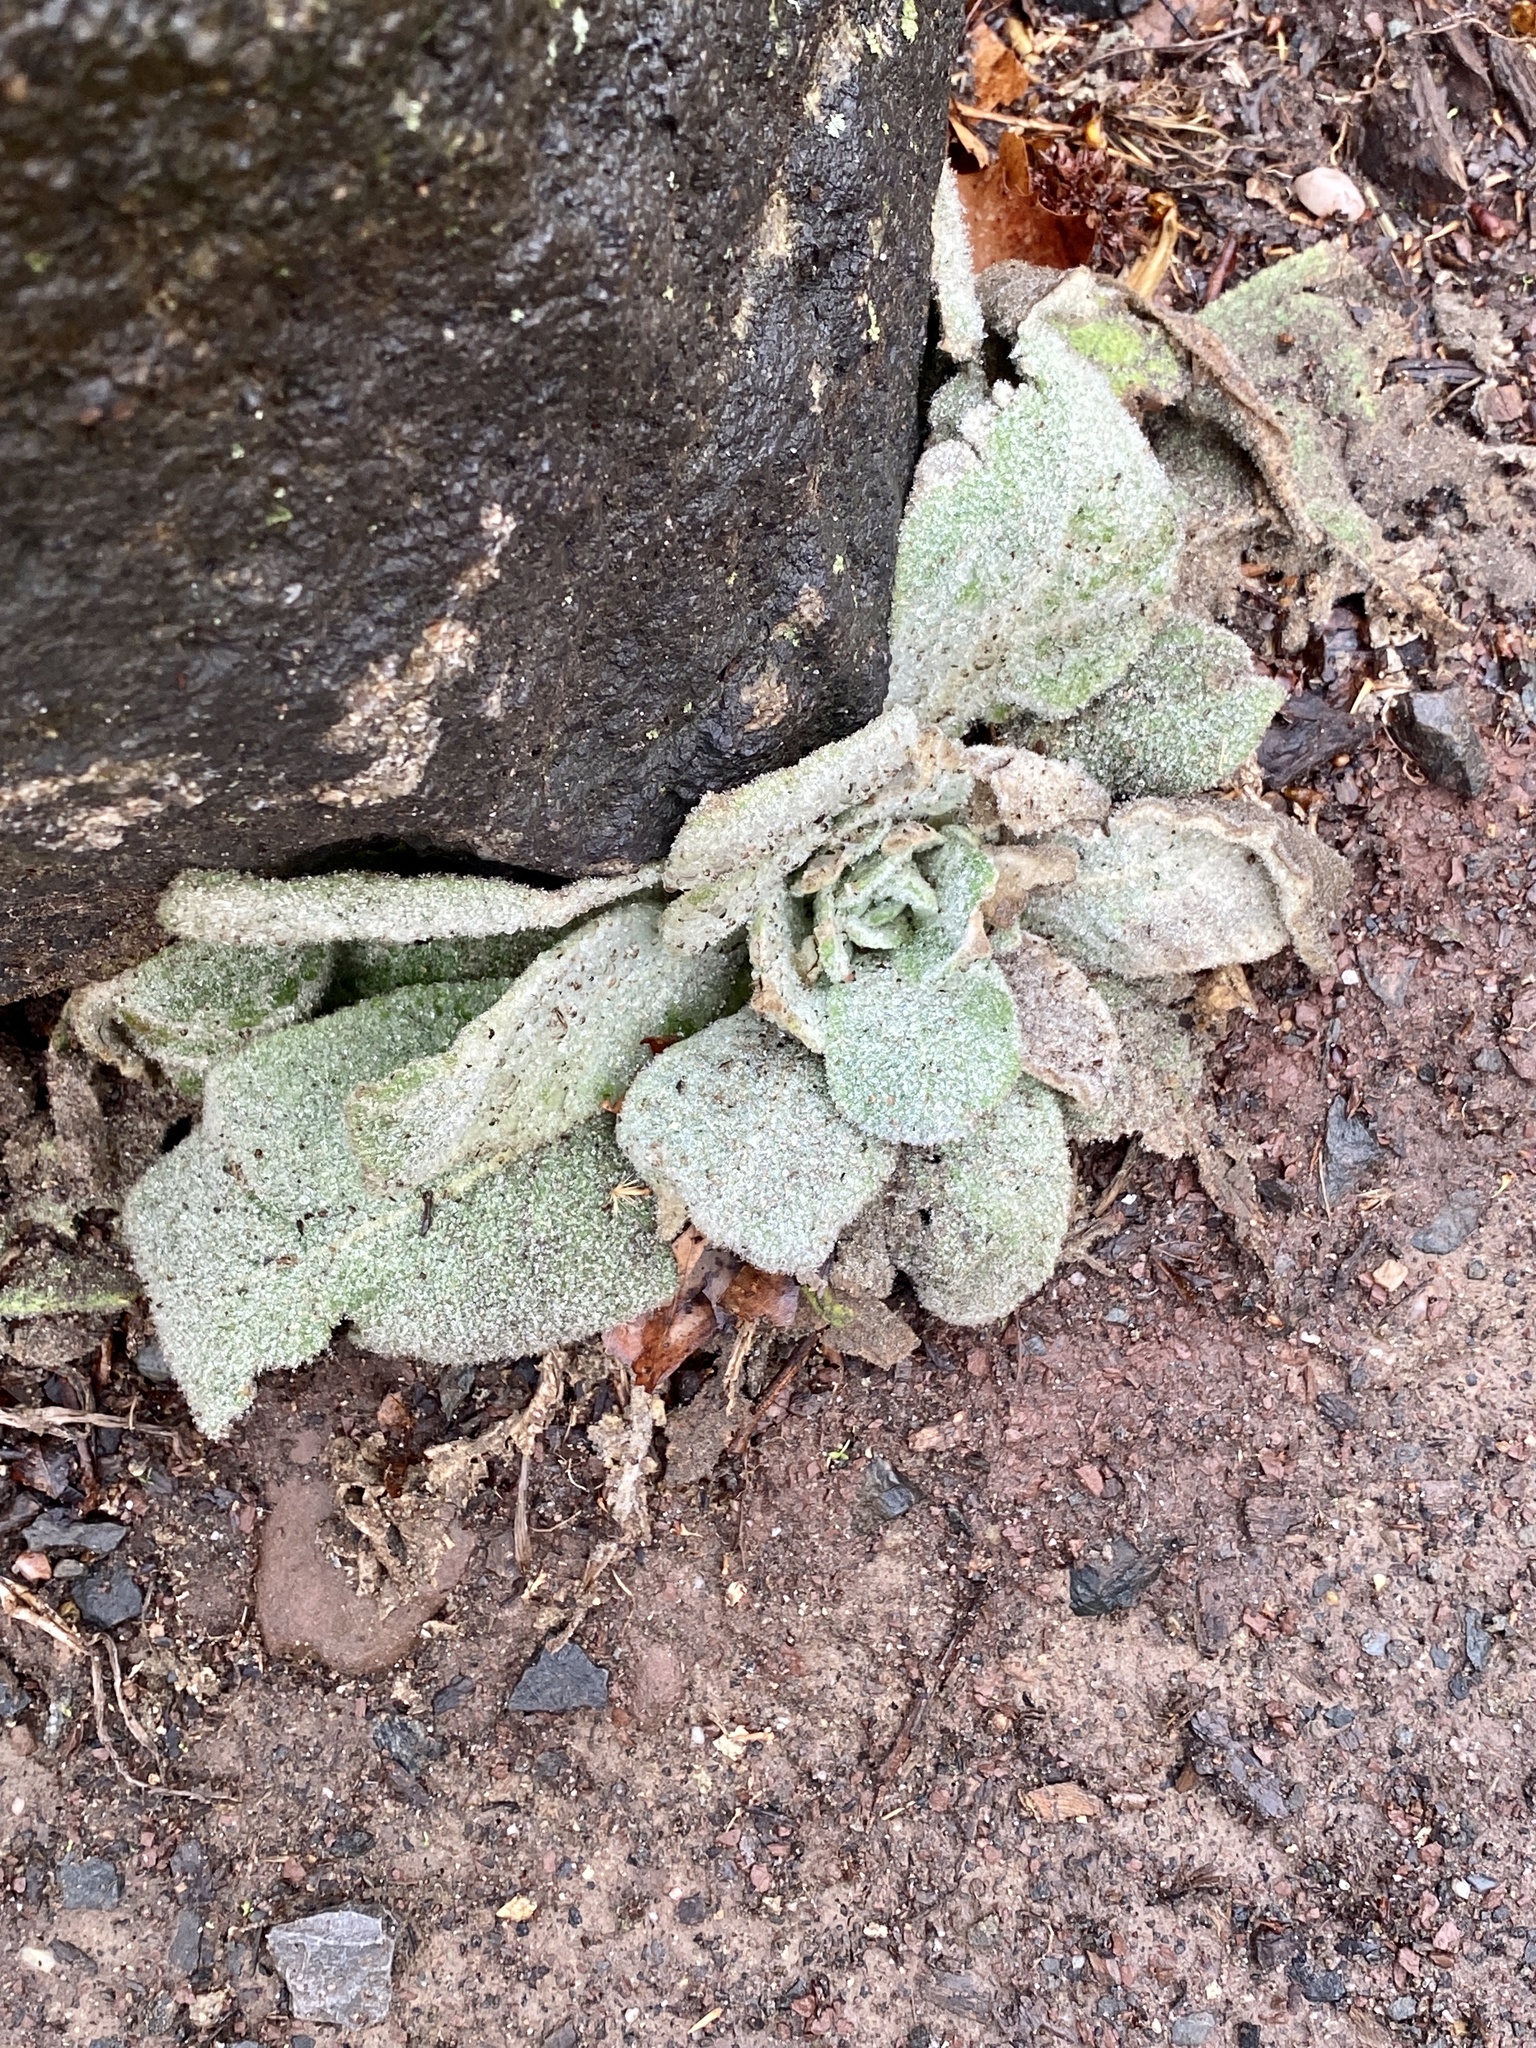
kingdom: Plantae
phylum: Tracheophyta
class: Magnoliopsida
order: Lamiales
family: Scrophulariaceae
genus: Verbascum
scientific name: Verbascum thapsus
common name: Common mullein
